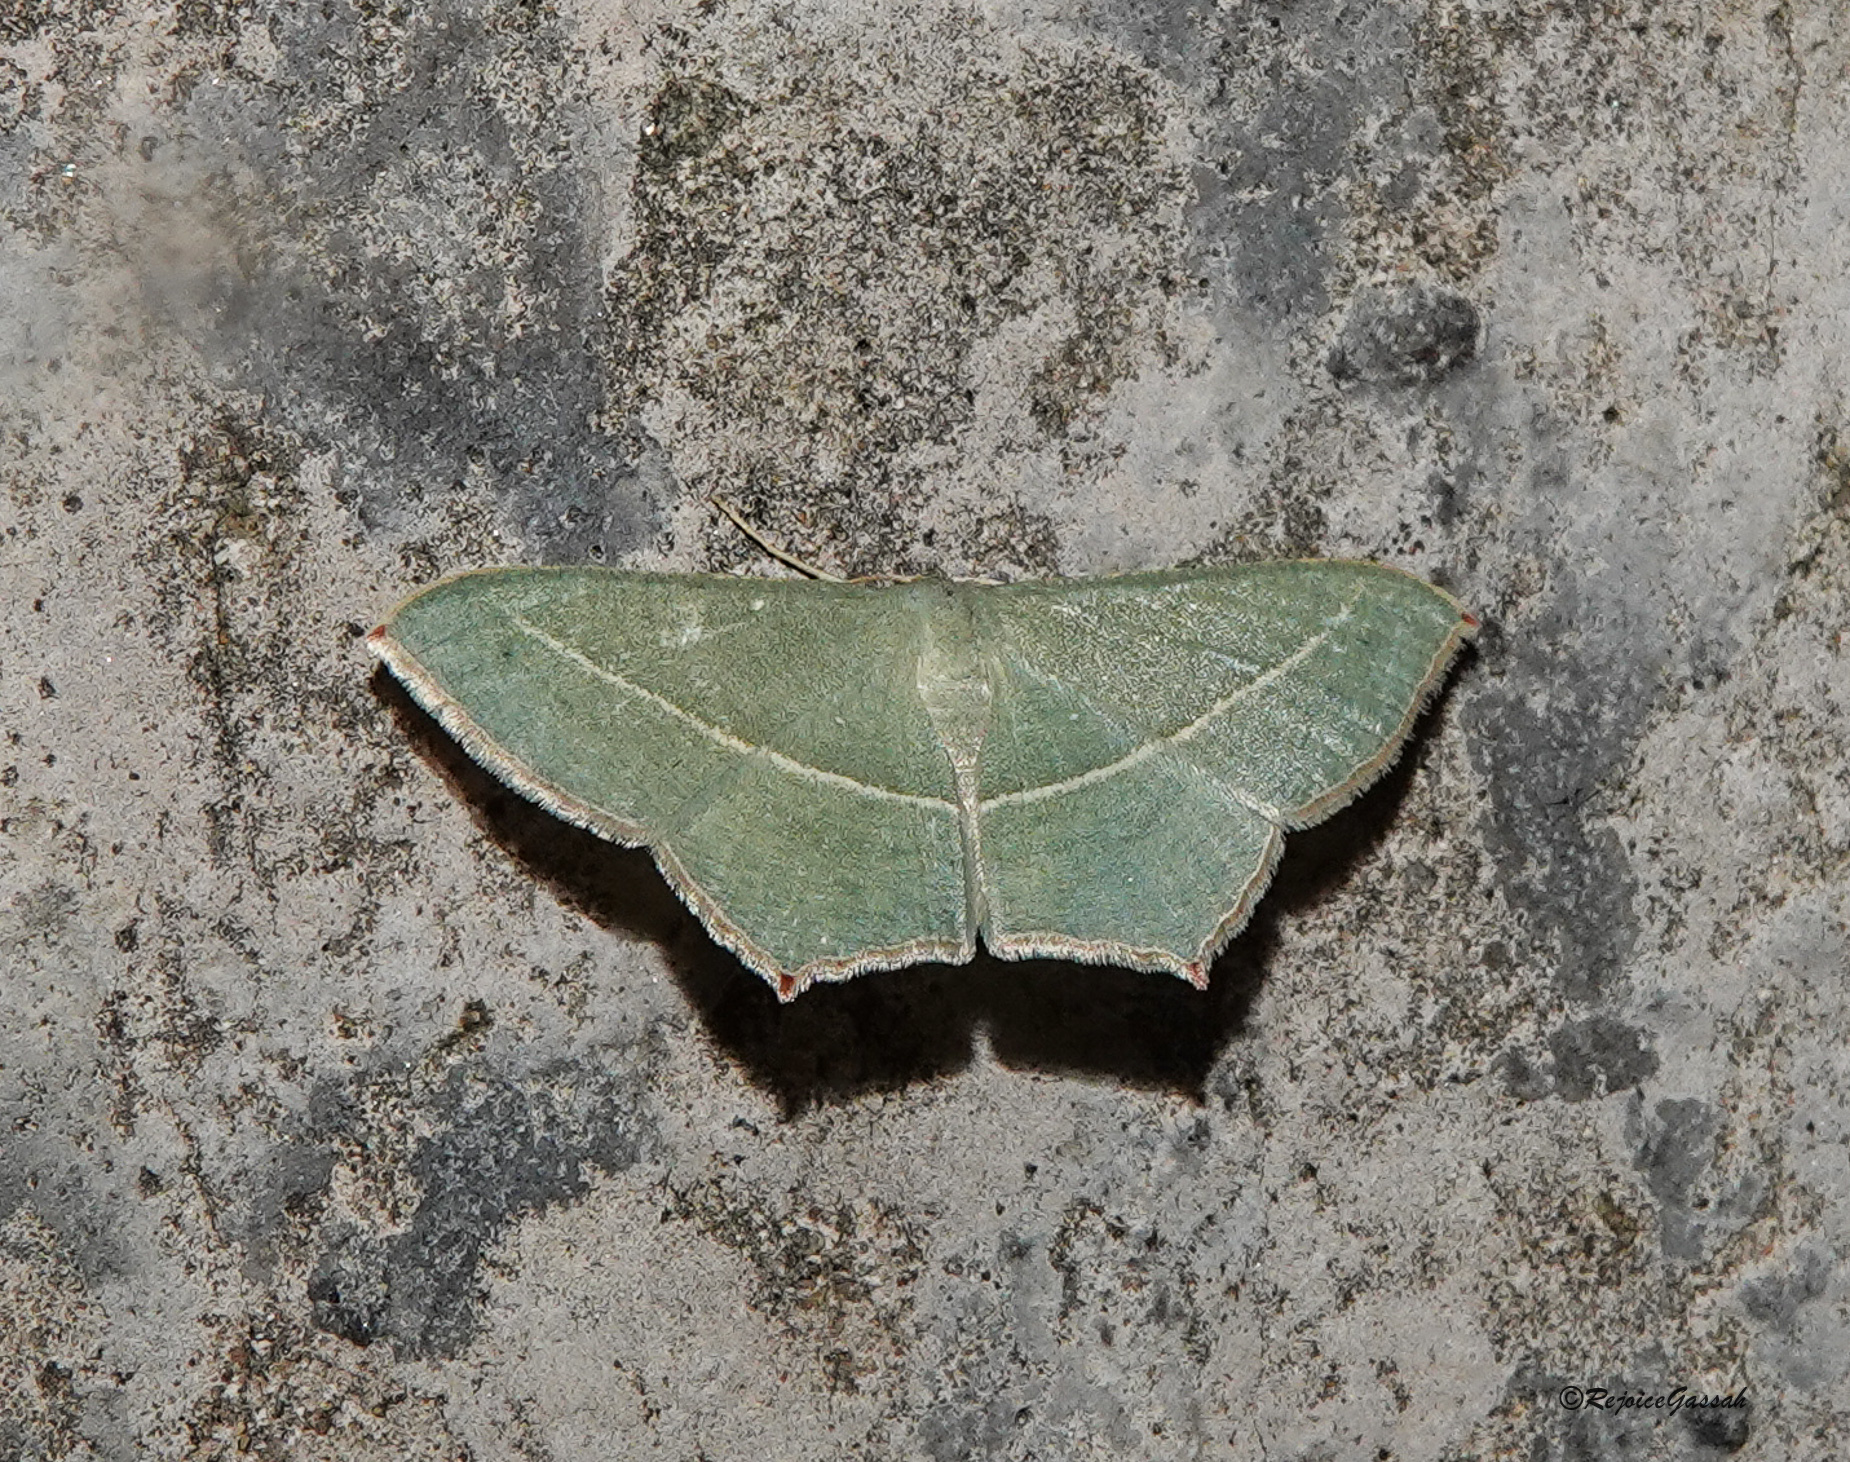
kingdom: Animalia
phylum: Arthropoda
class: Insecta
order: Lepidoptera
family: Geometridae
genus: Traminda
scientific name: Traminda mundissima
